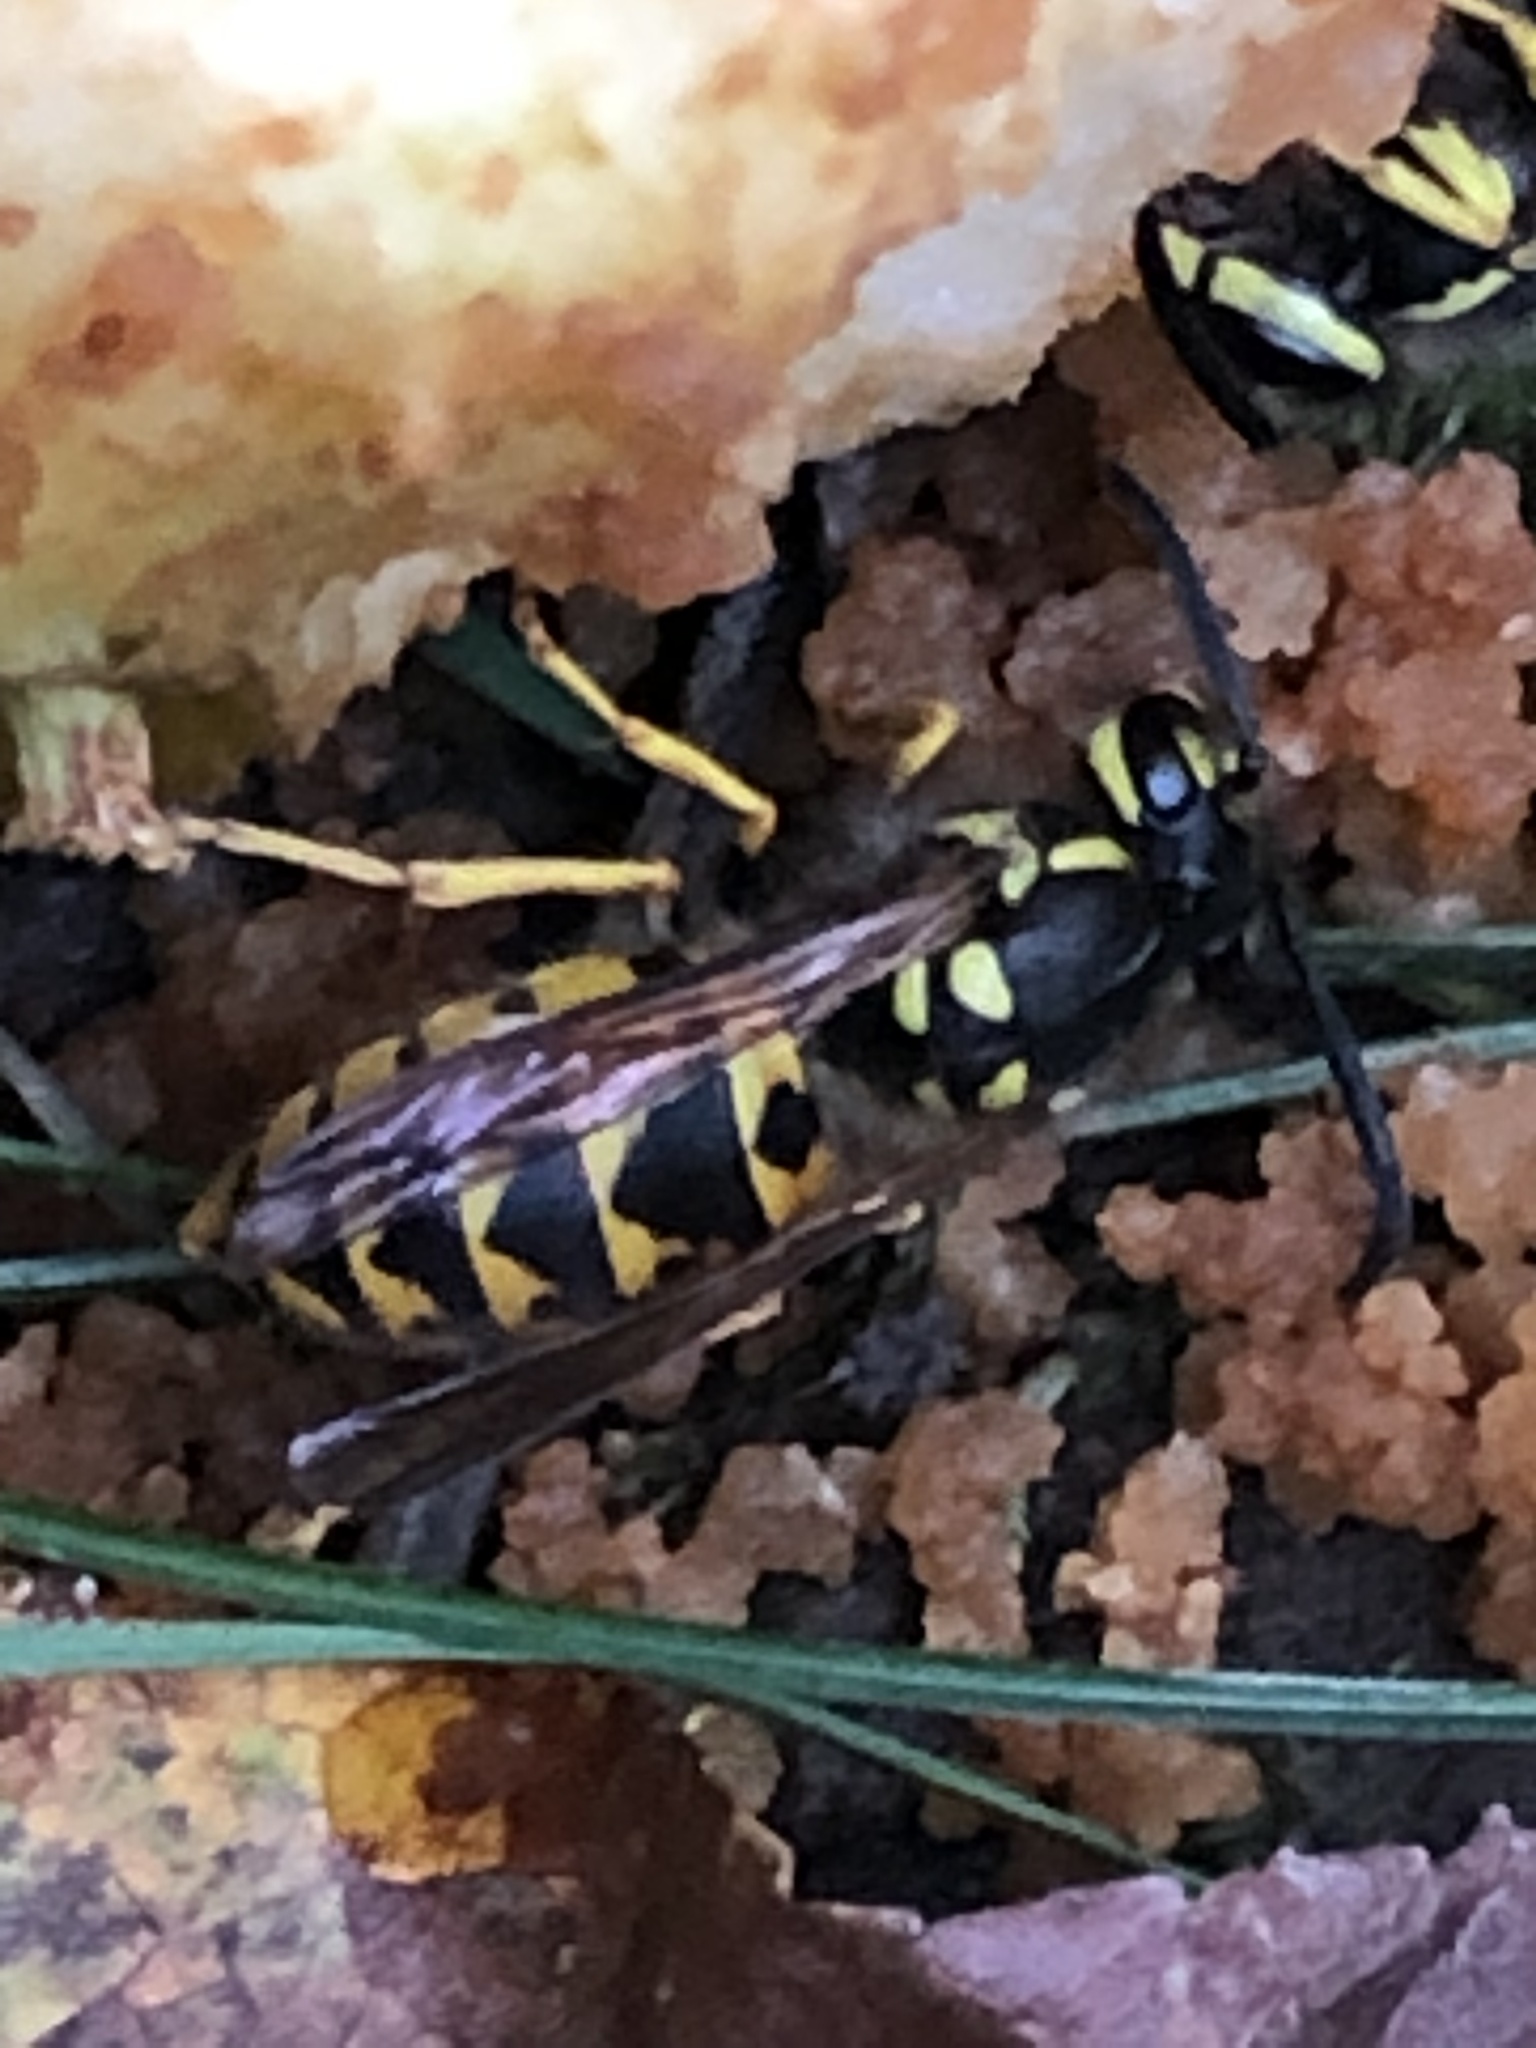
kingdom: Animalia
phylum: Arthropoda
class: Insecta
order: Hymenoptera
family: Vespidae
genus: Vespula
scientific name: Vespula germanica
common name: German wasp
